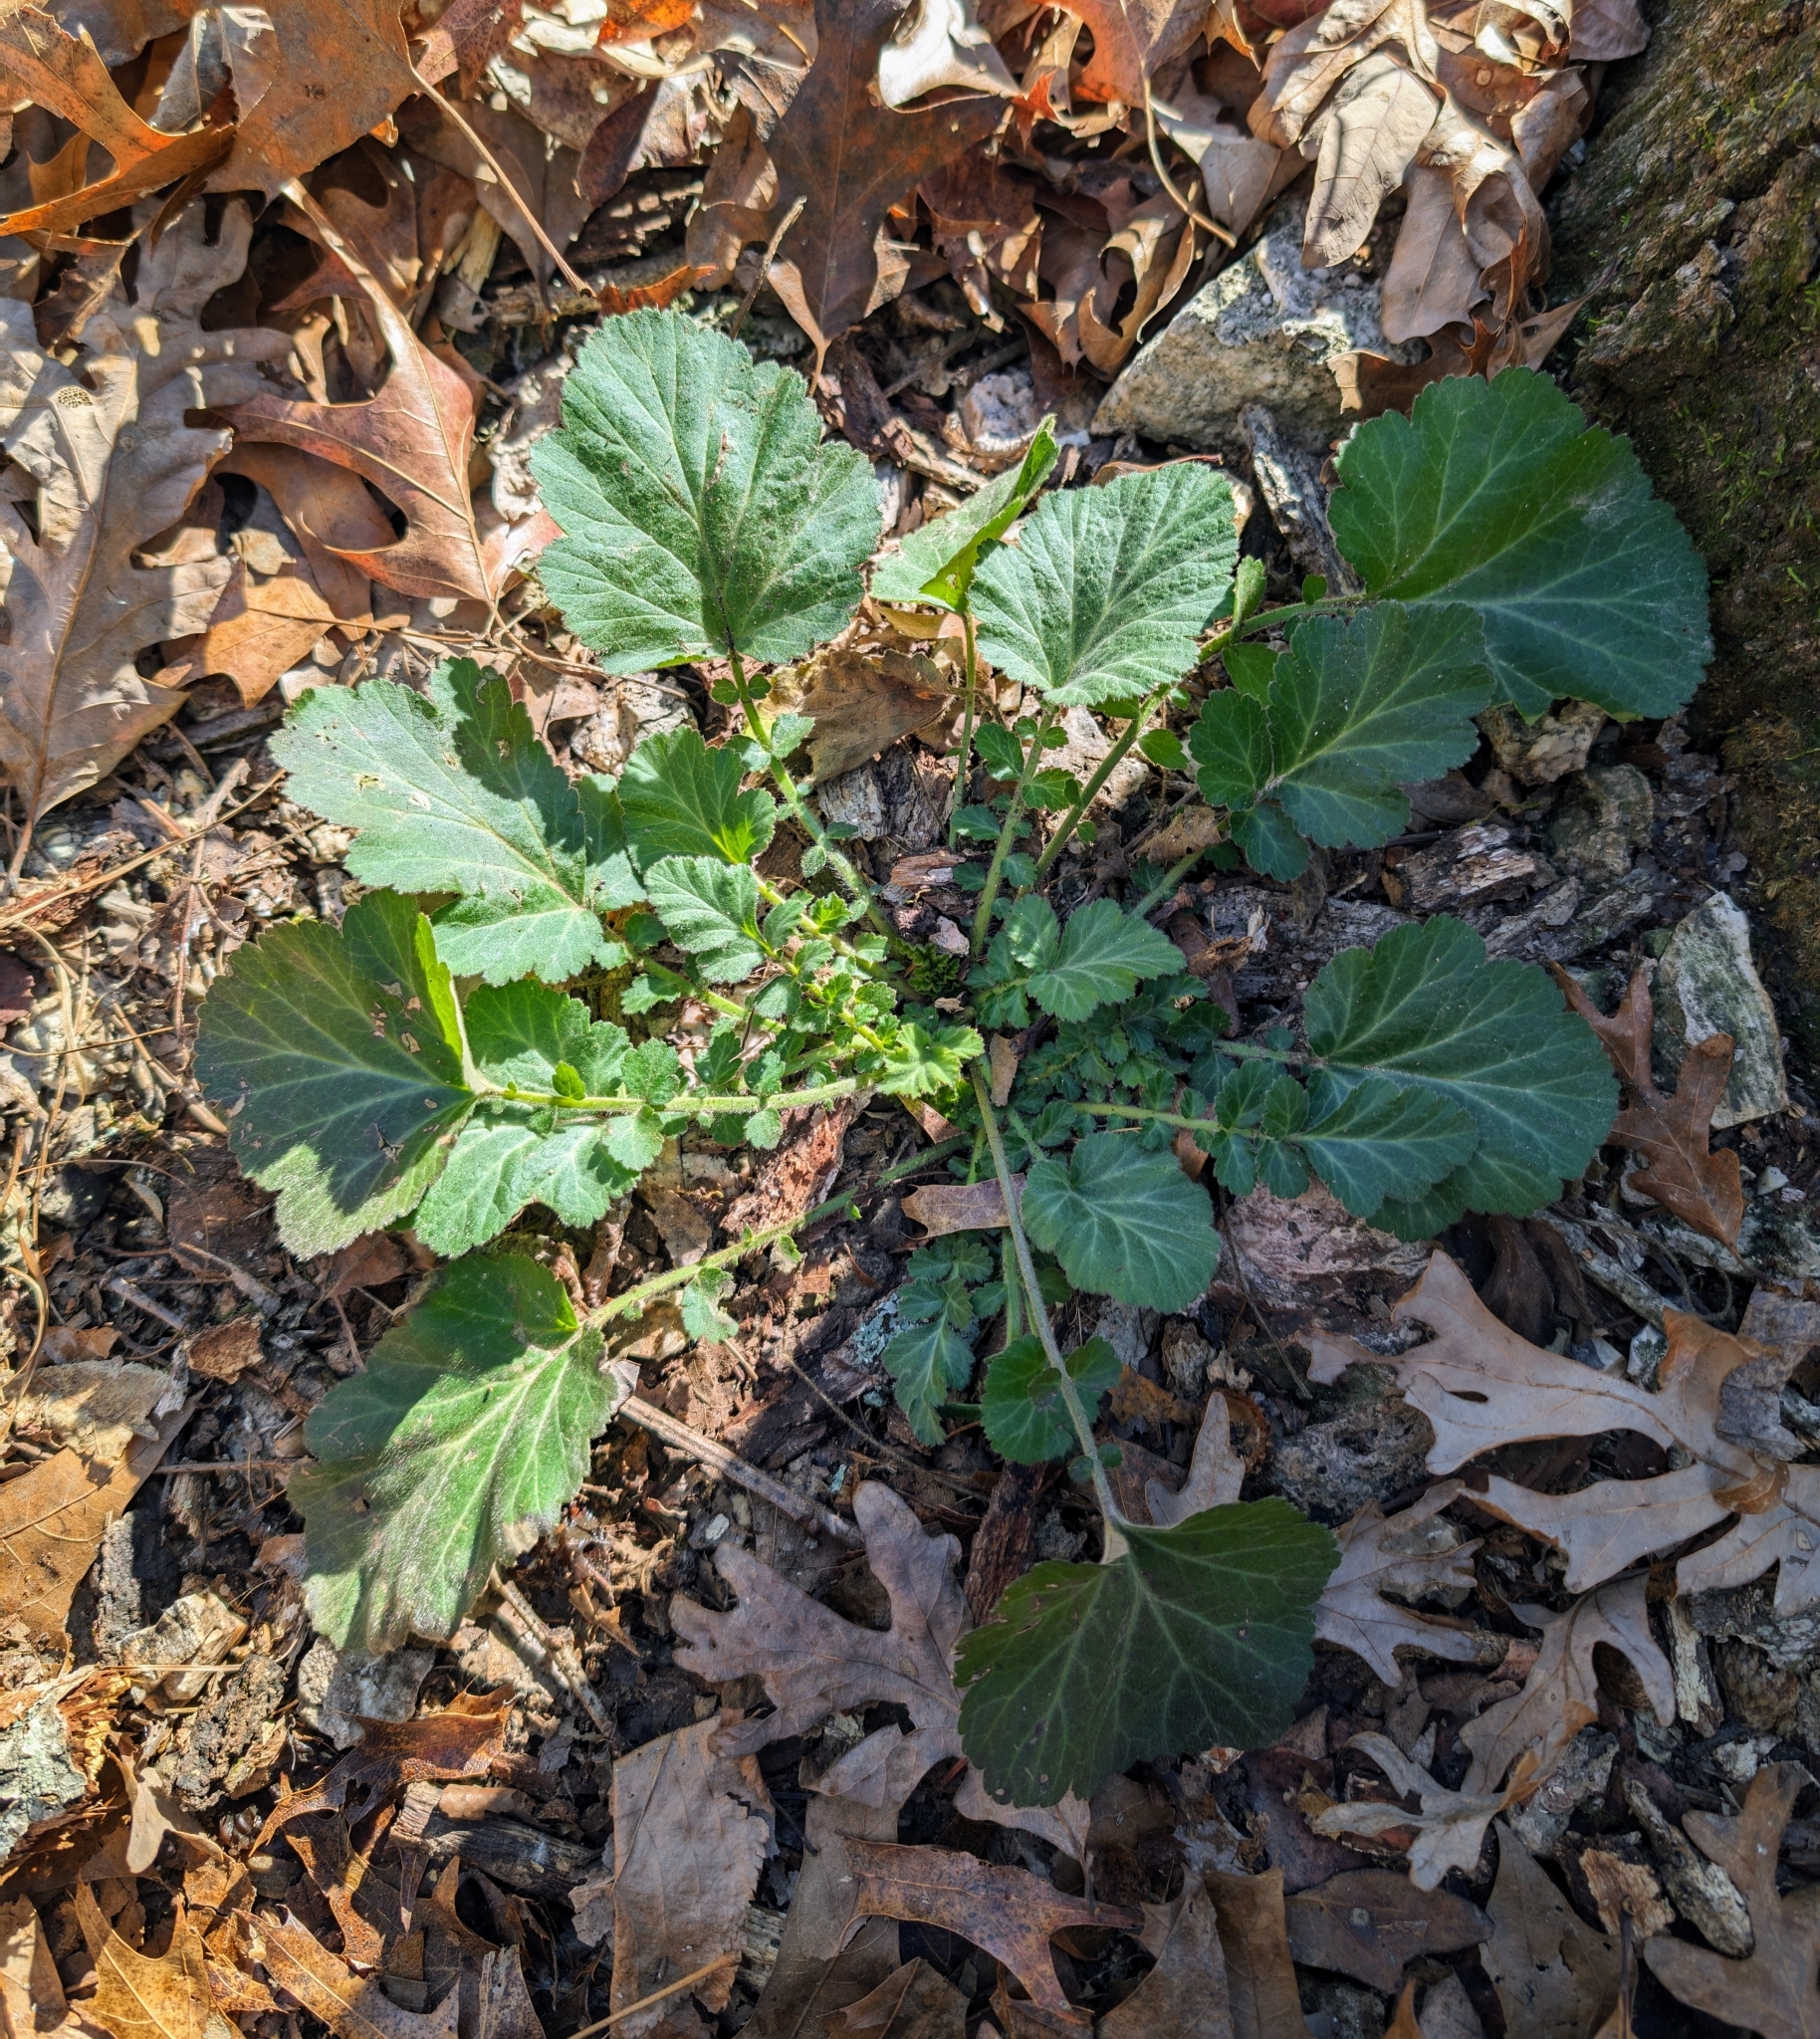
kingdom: Plantae
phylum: Tracheophyta
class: Magnoliopsida
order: Rosales
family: Rosaceae
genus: Geum
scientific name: Geum canadense
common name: White avens
